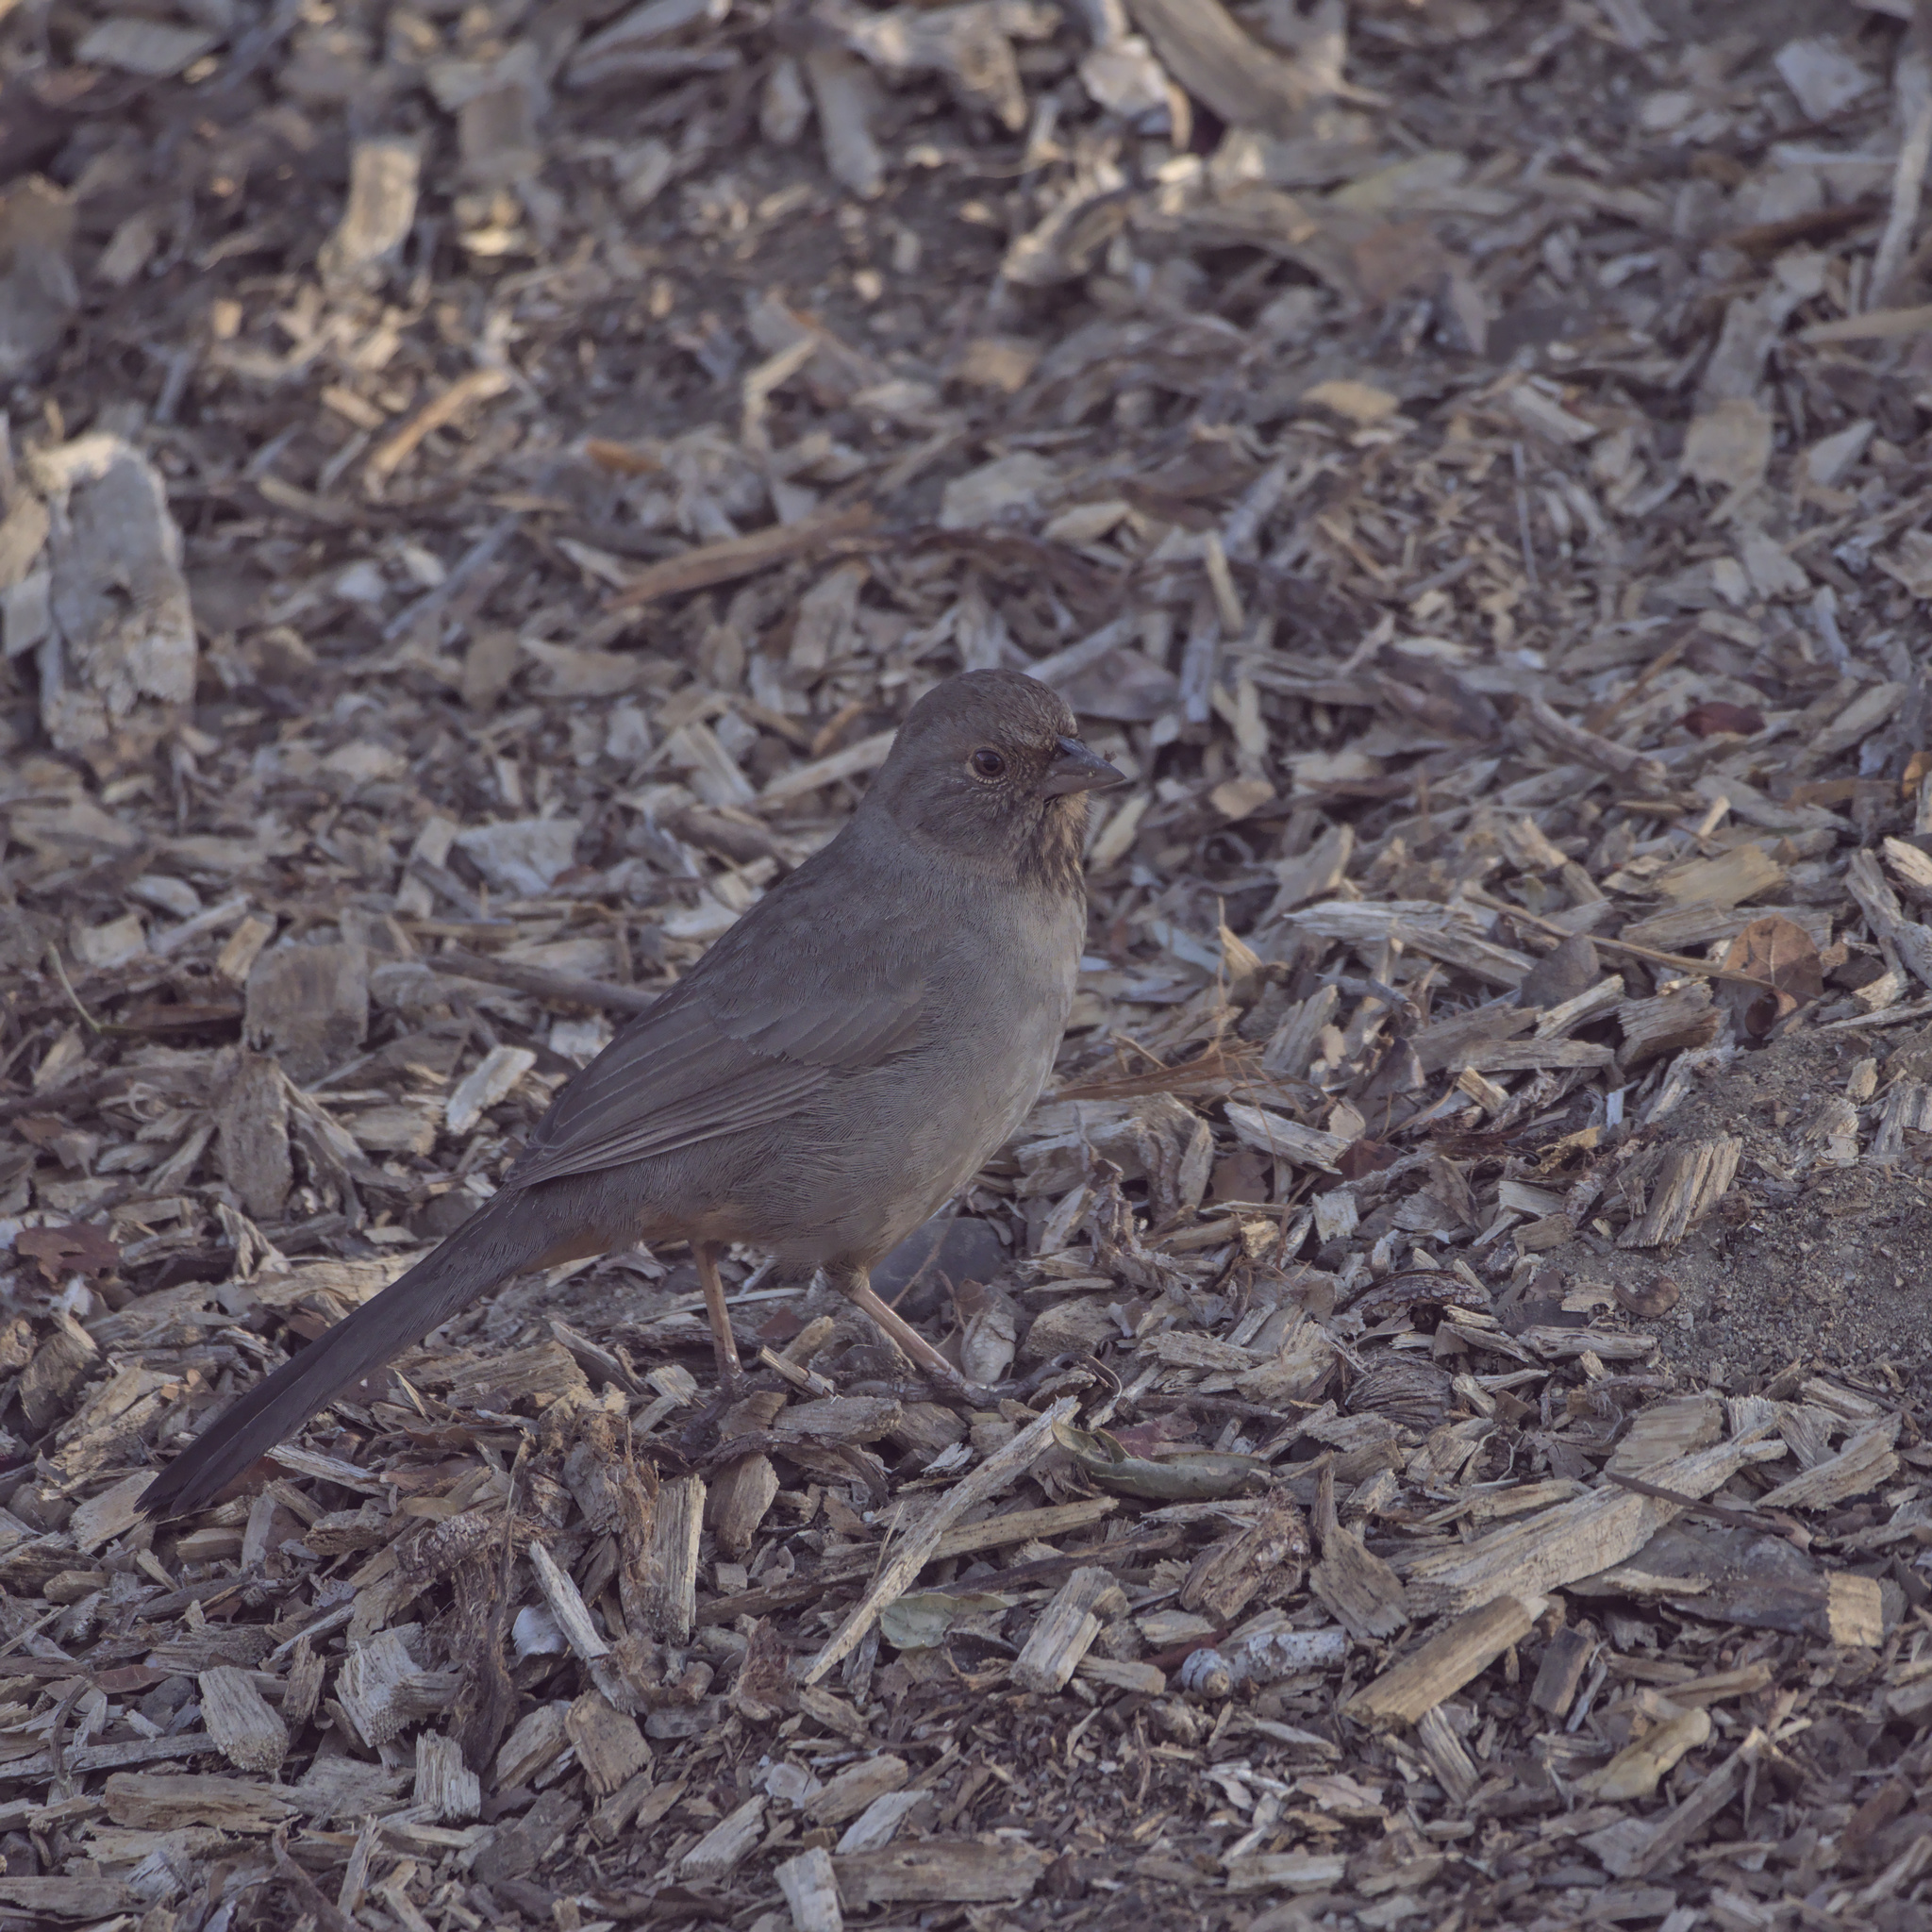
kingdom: Animalia
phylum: Chordata
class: Aves
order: Passeriformes
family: Passerellidae
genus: Melozone
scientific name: Melozone crissalis
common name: California towhee
